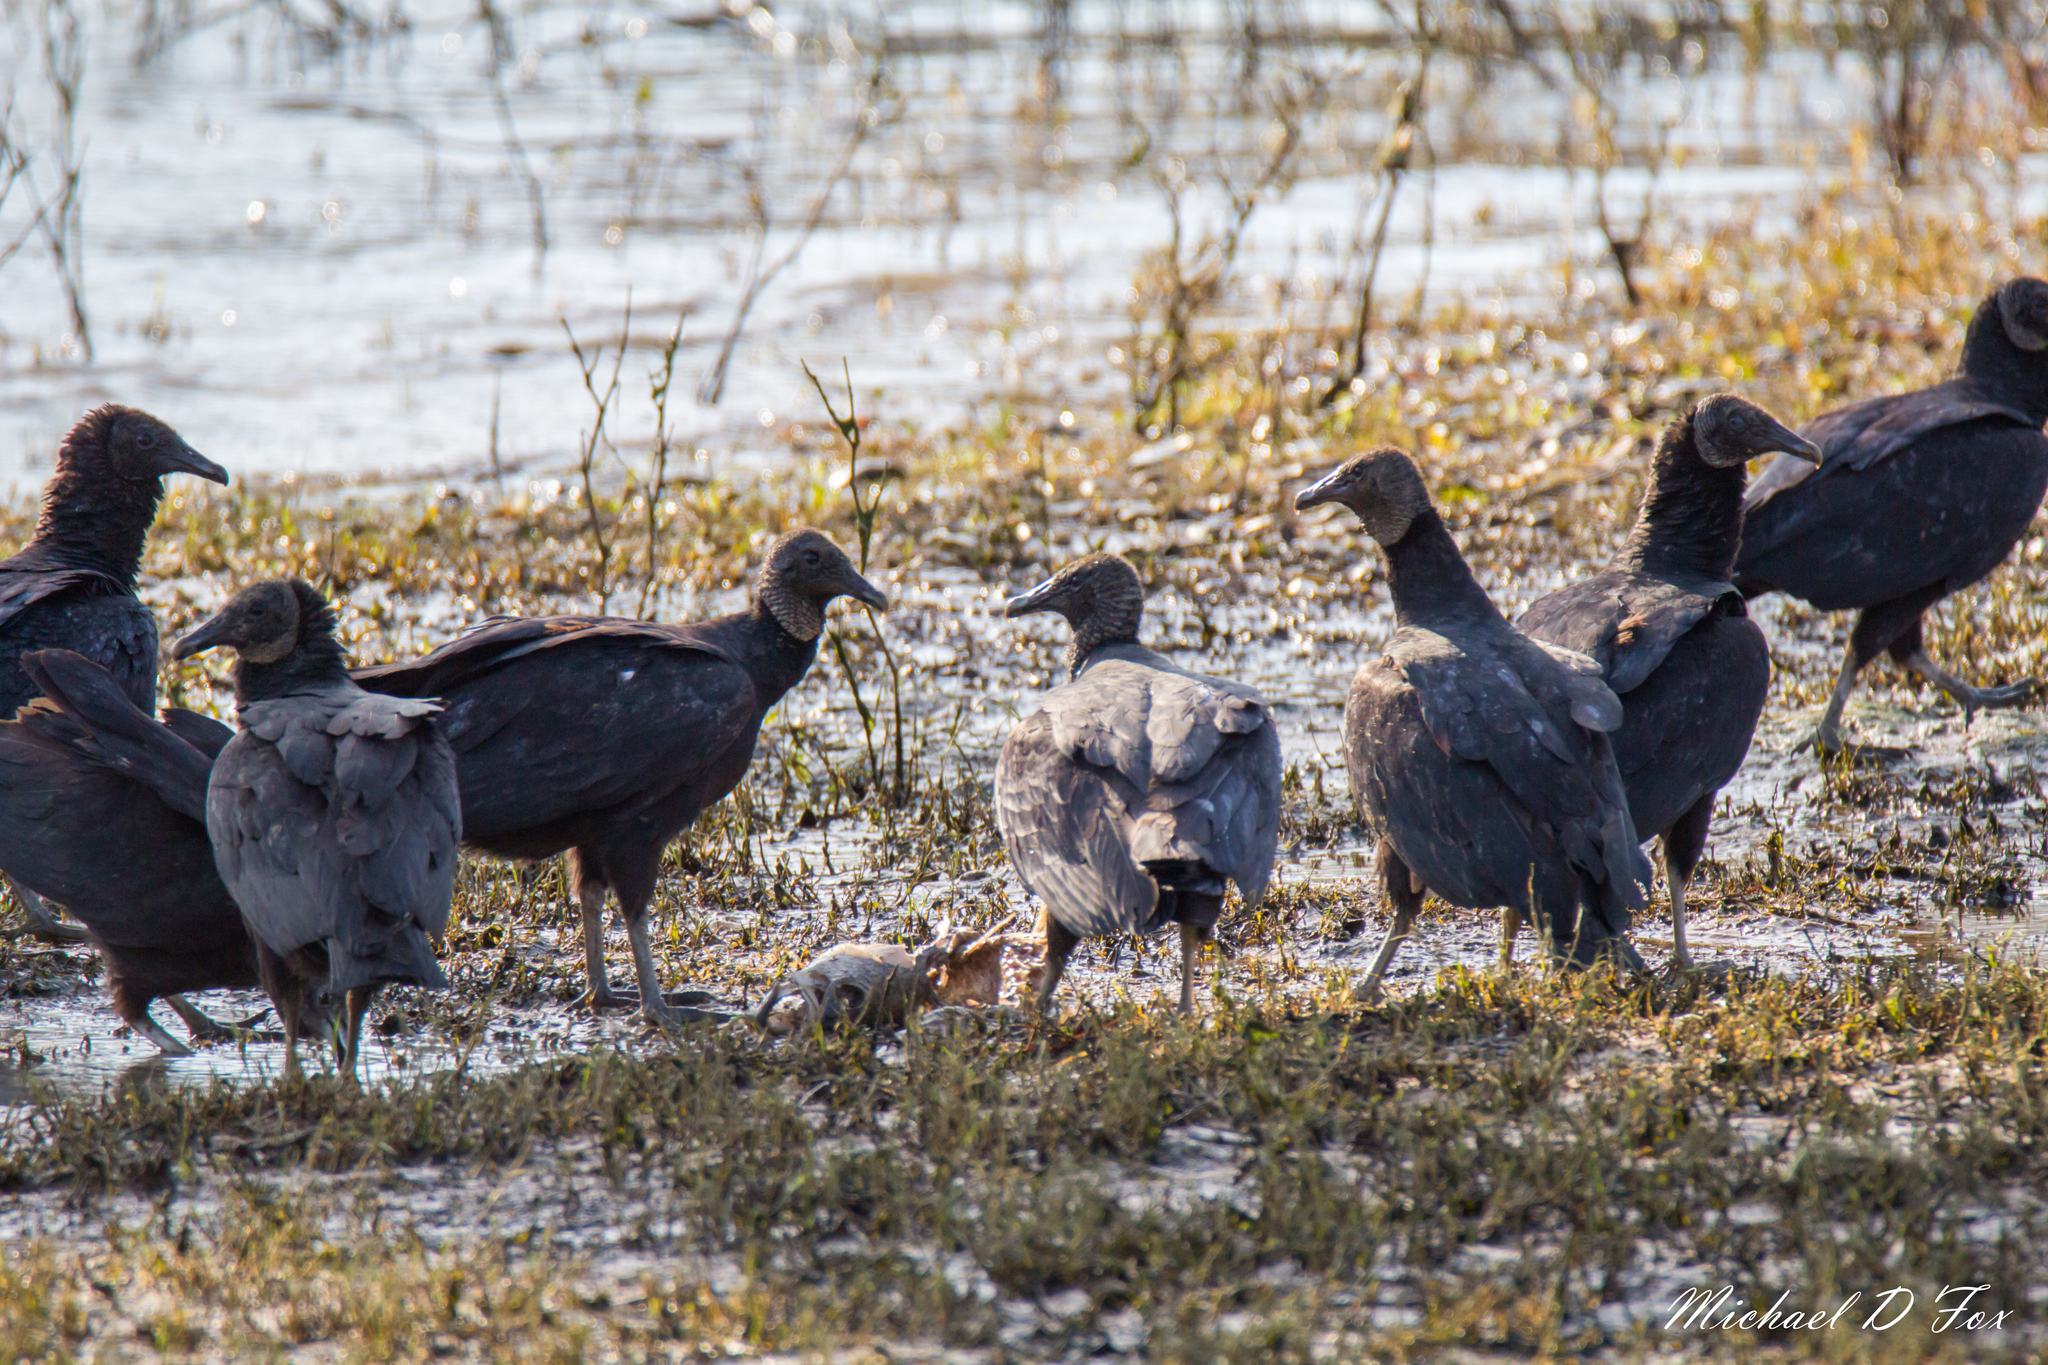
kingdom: Animalia
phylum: Chordata
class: Aves
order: Accipitriformes
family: Cathartidae
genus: Coragyps
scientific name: Coragyps atratus
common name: Black vulture
